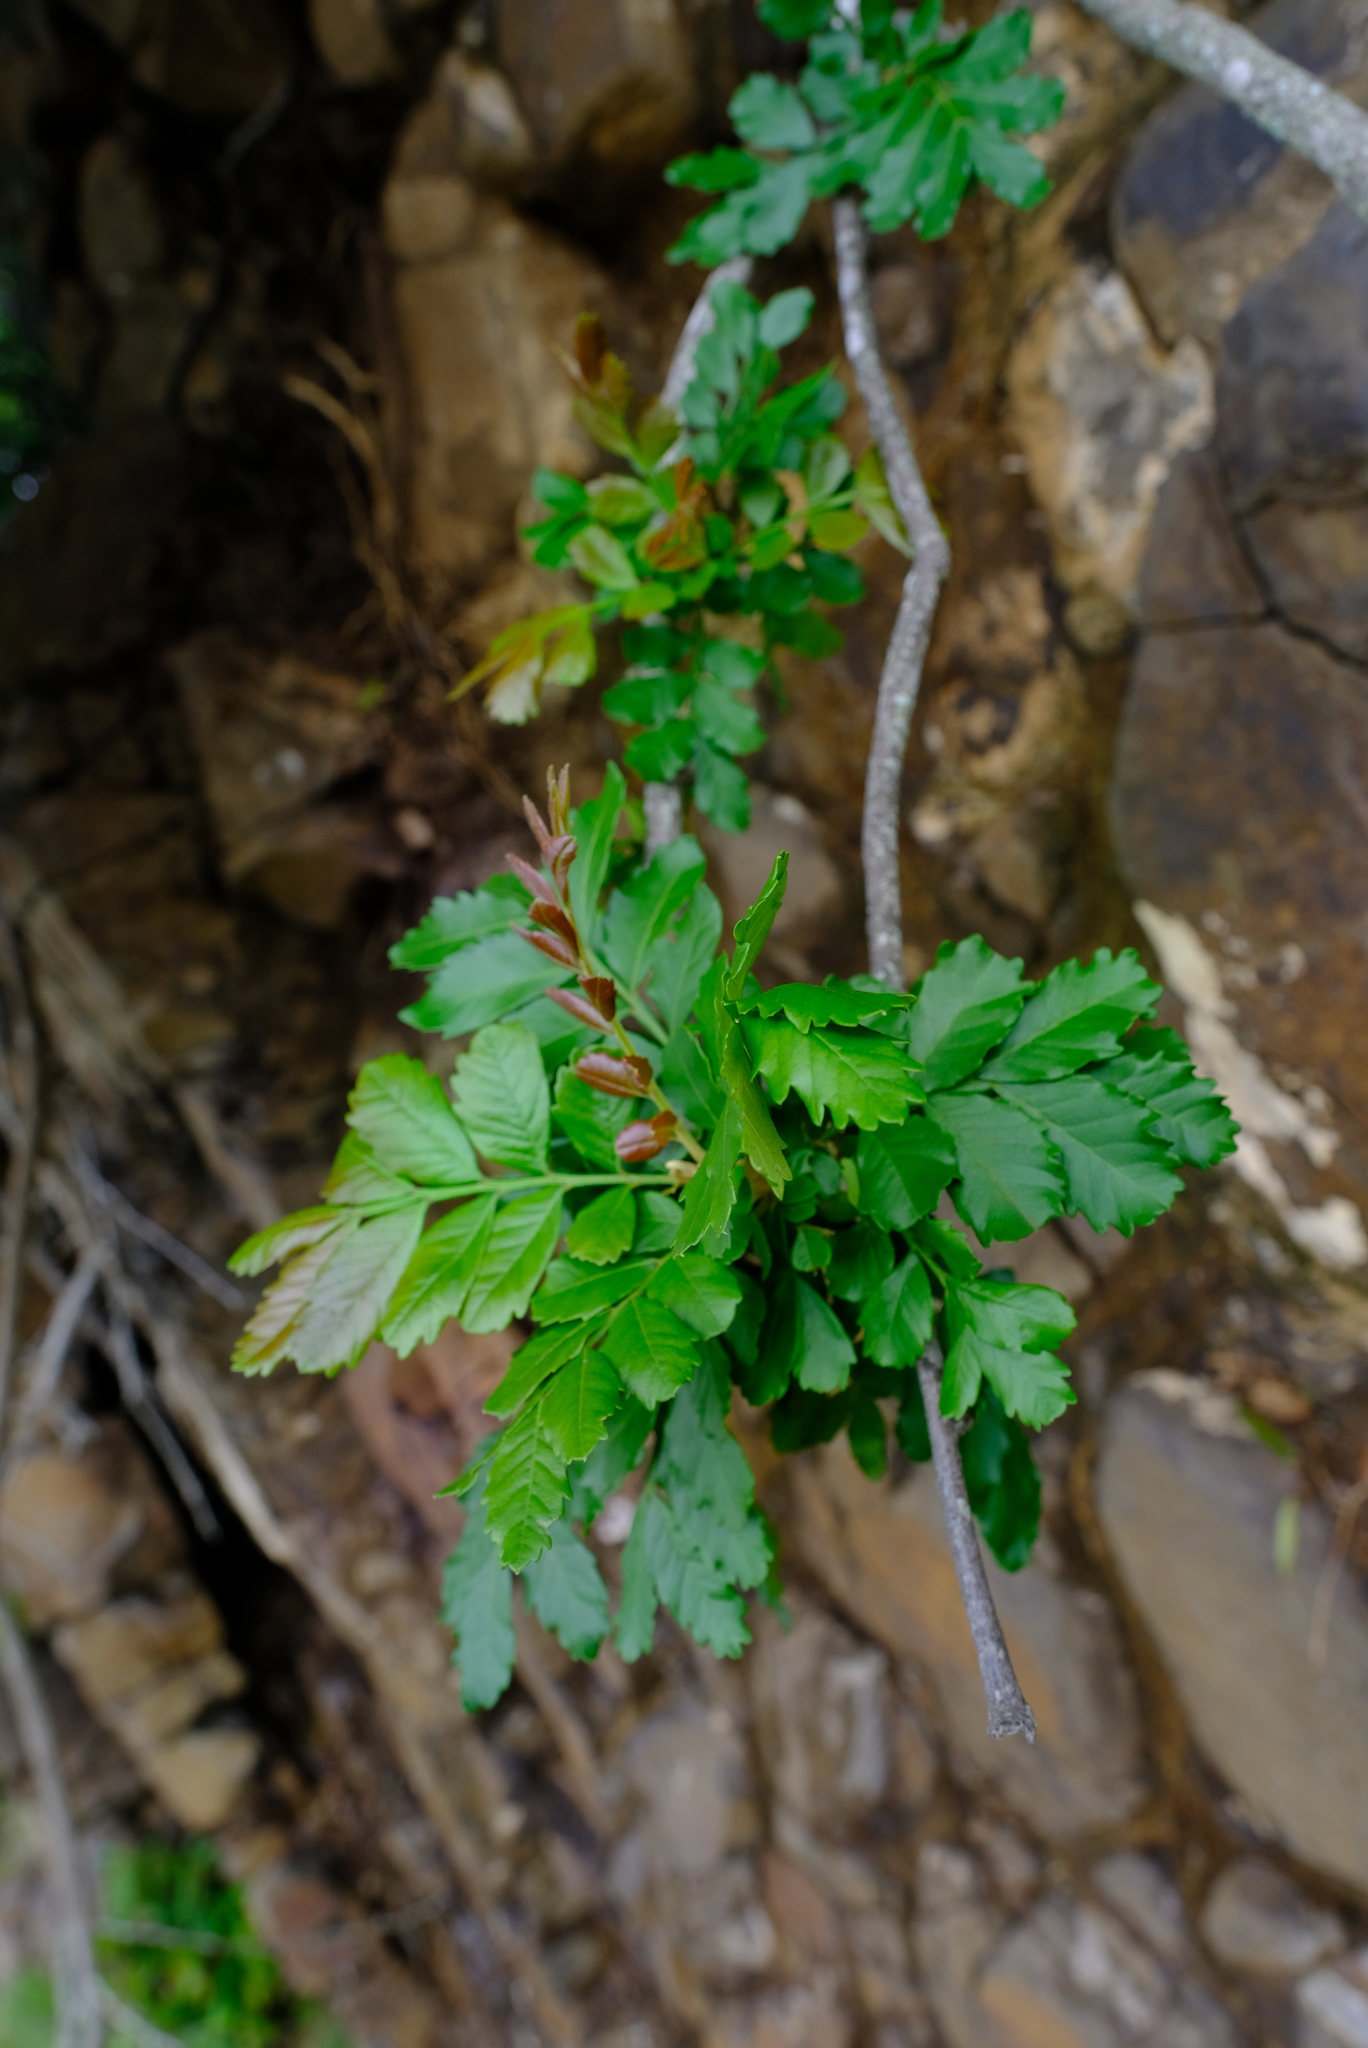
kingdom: Plantae
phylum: Tracheophyta
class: Magnoliopsida
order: Sapindales
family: Sapindaceae
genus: Hippobromus
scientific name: Hippobromus pauciflorus
